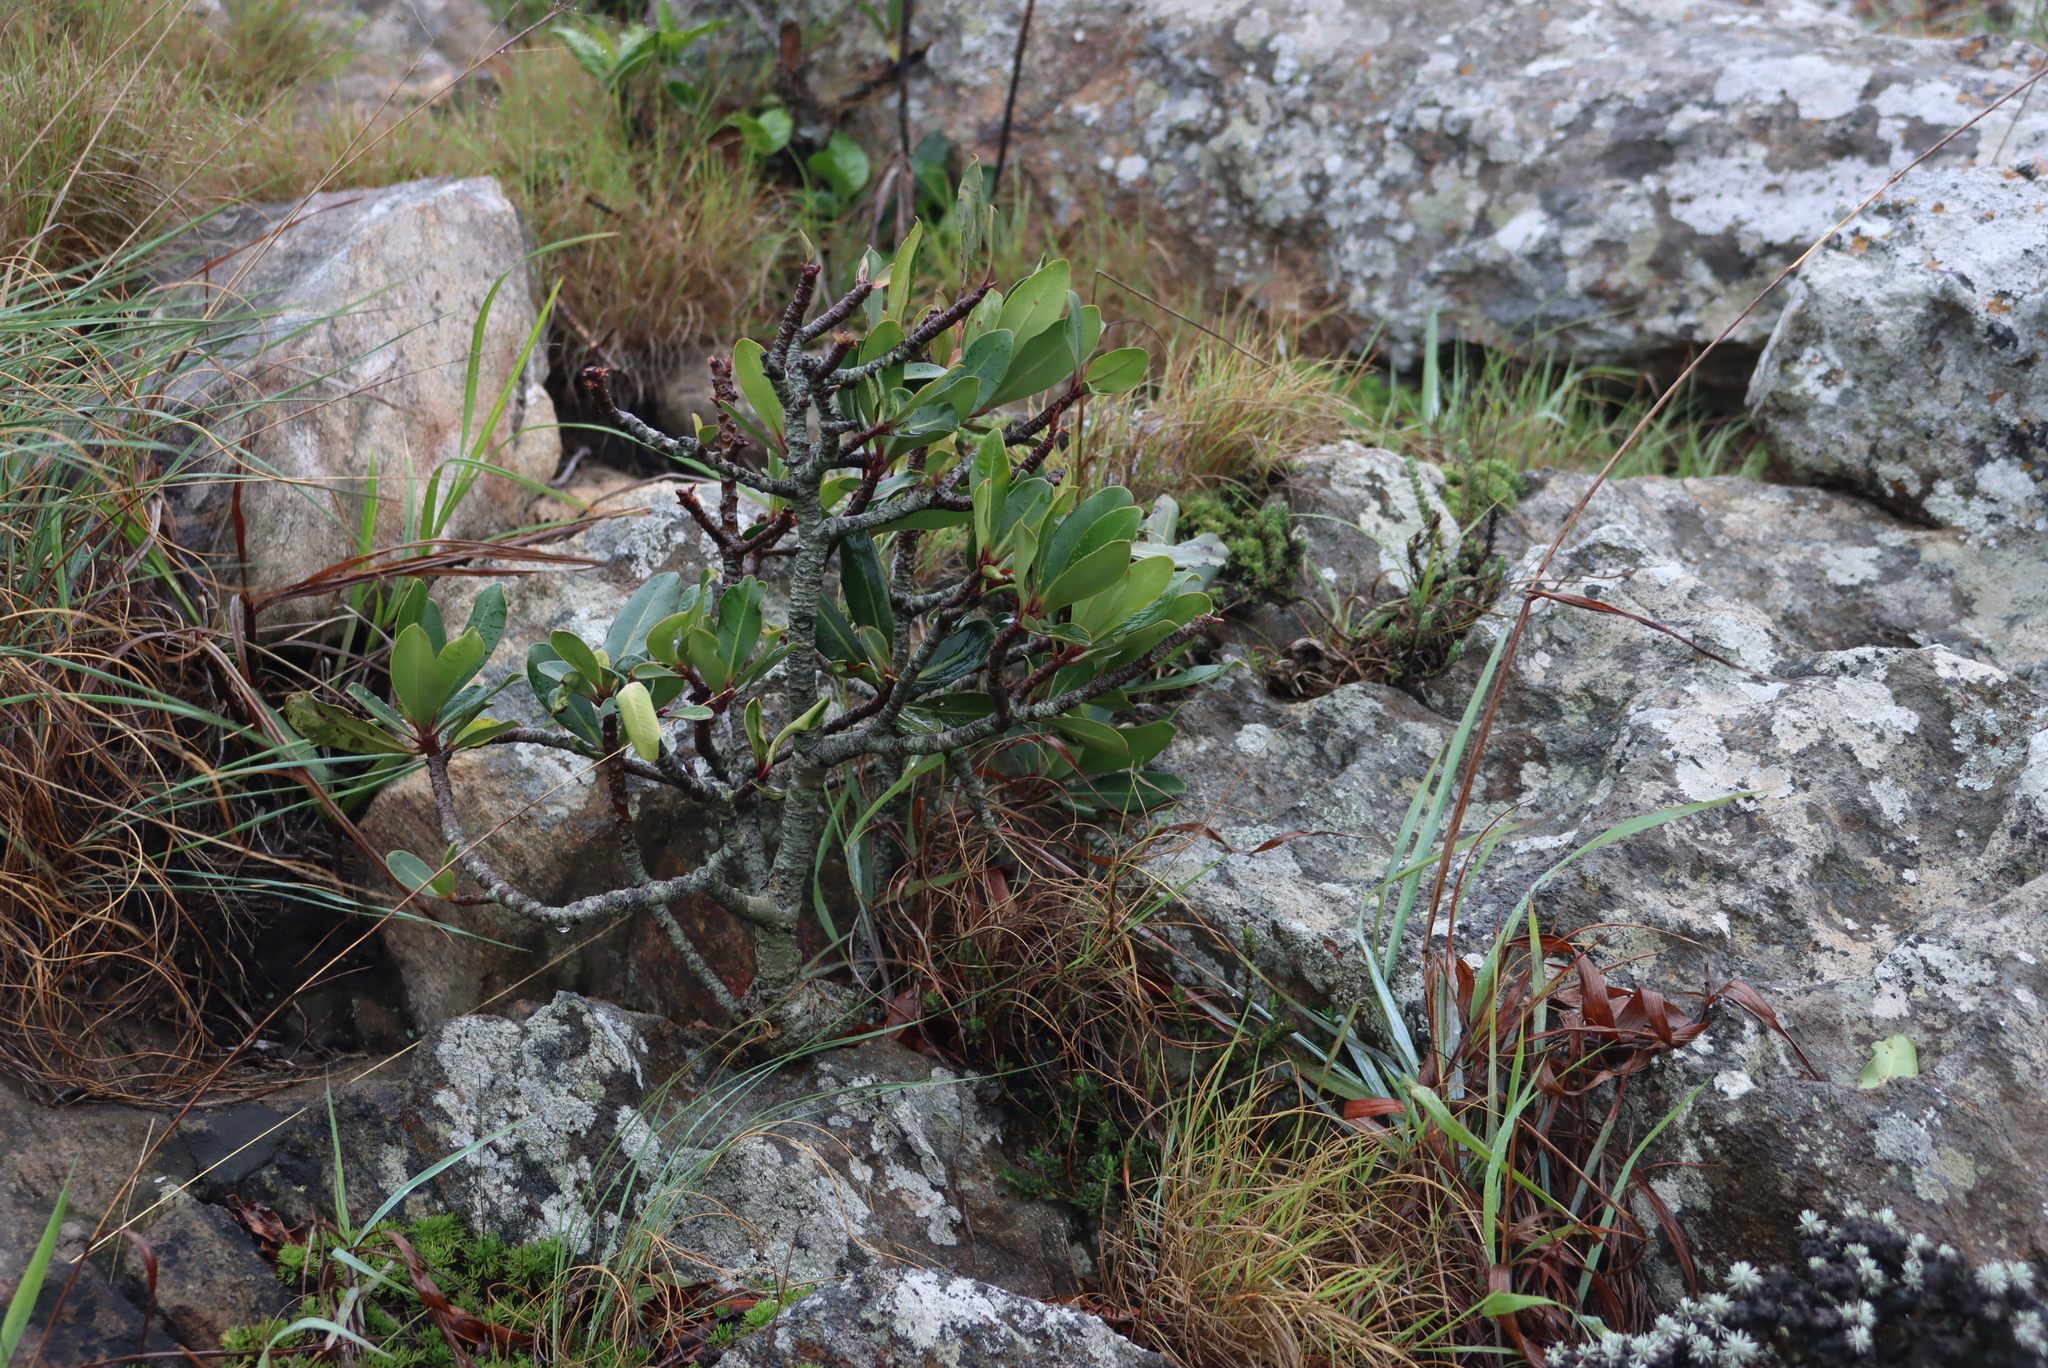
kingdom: Plantae
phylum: Tracheophyta
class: Magnoliopsida
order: Ericales
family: Primulaceae
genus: Myrsine
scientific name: Myrsine melanophloeos
